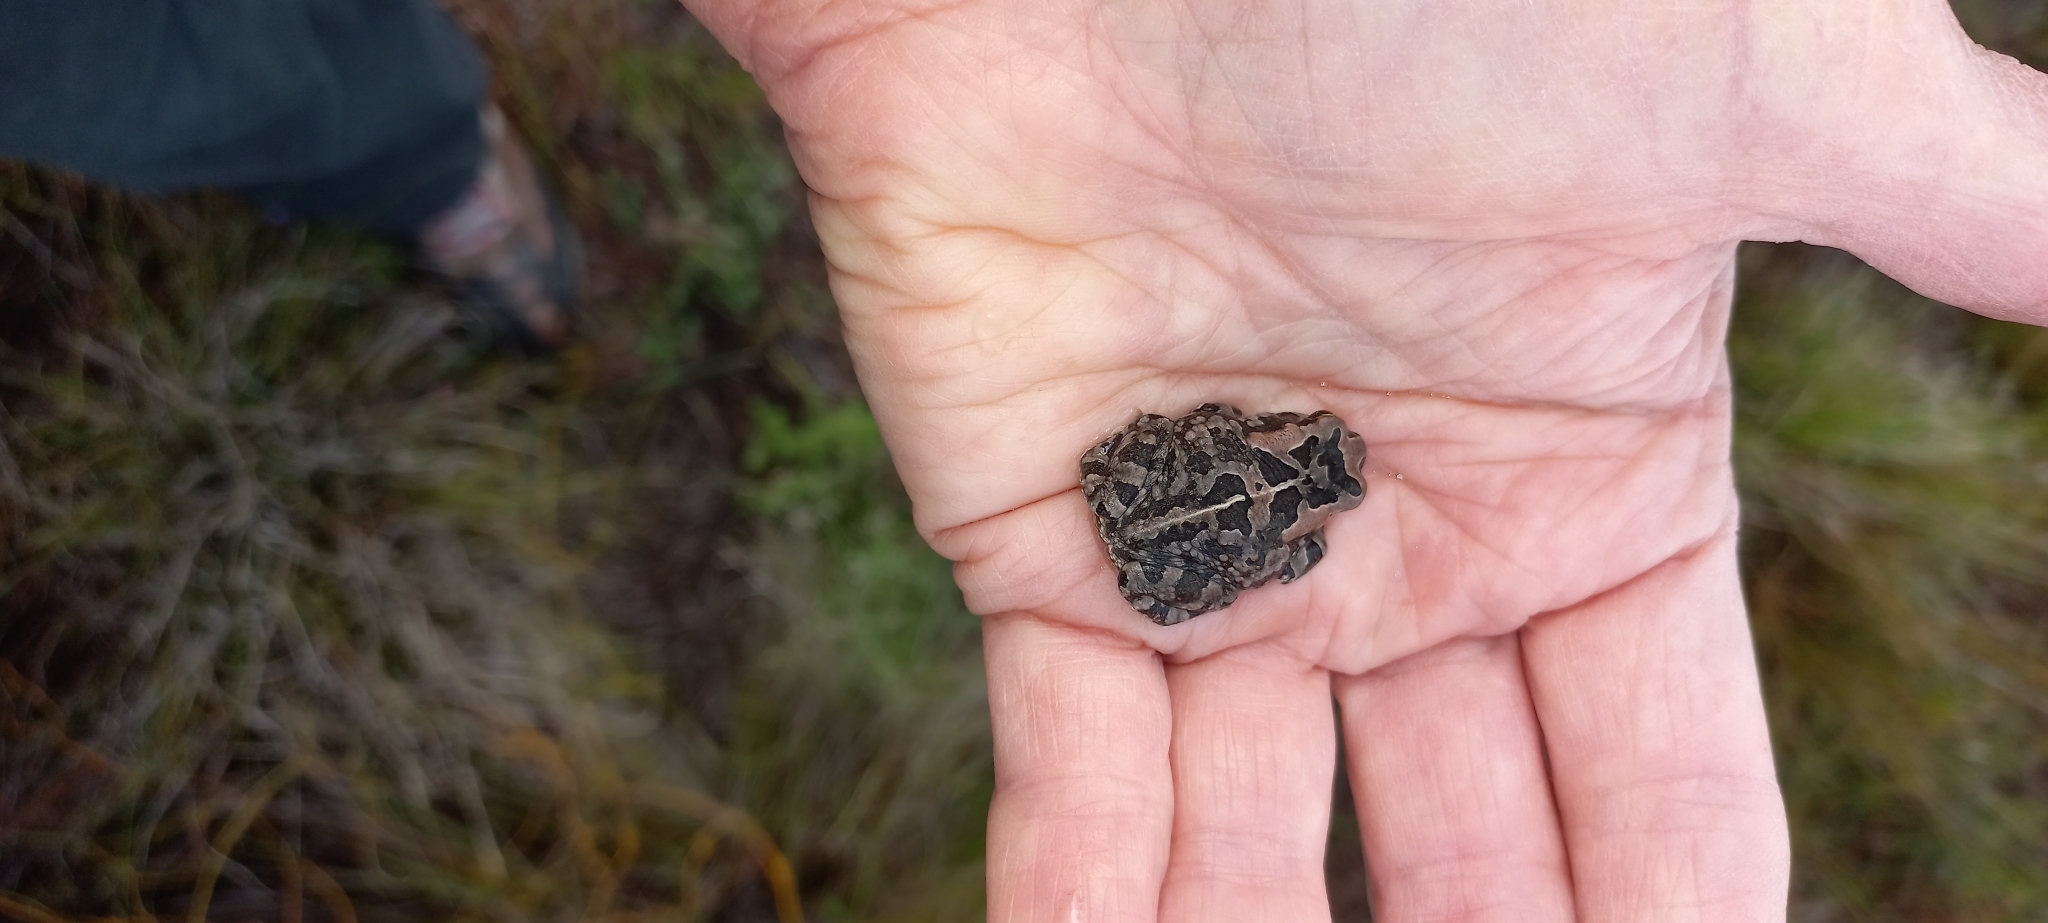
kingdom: Animalia
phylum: Chordata
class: Amphibia
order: Anura
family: Bufonidae
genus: Sclerophrys
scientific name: Sclerophrys capensis
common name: Ranger’s toad
